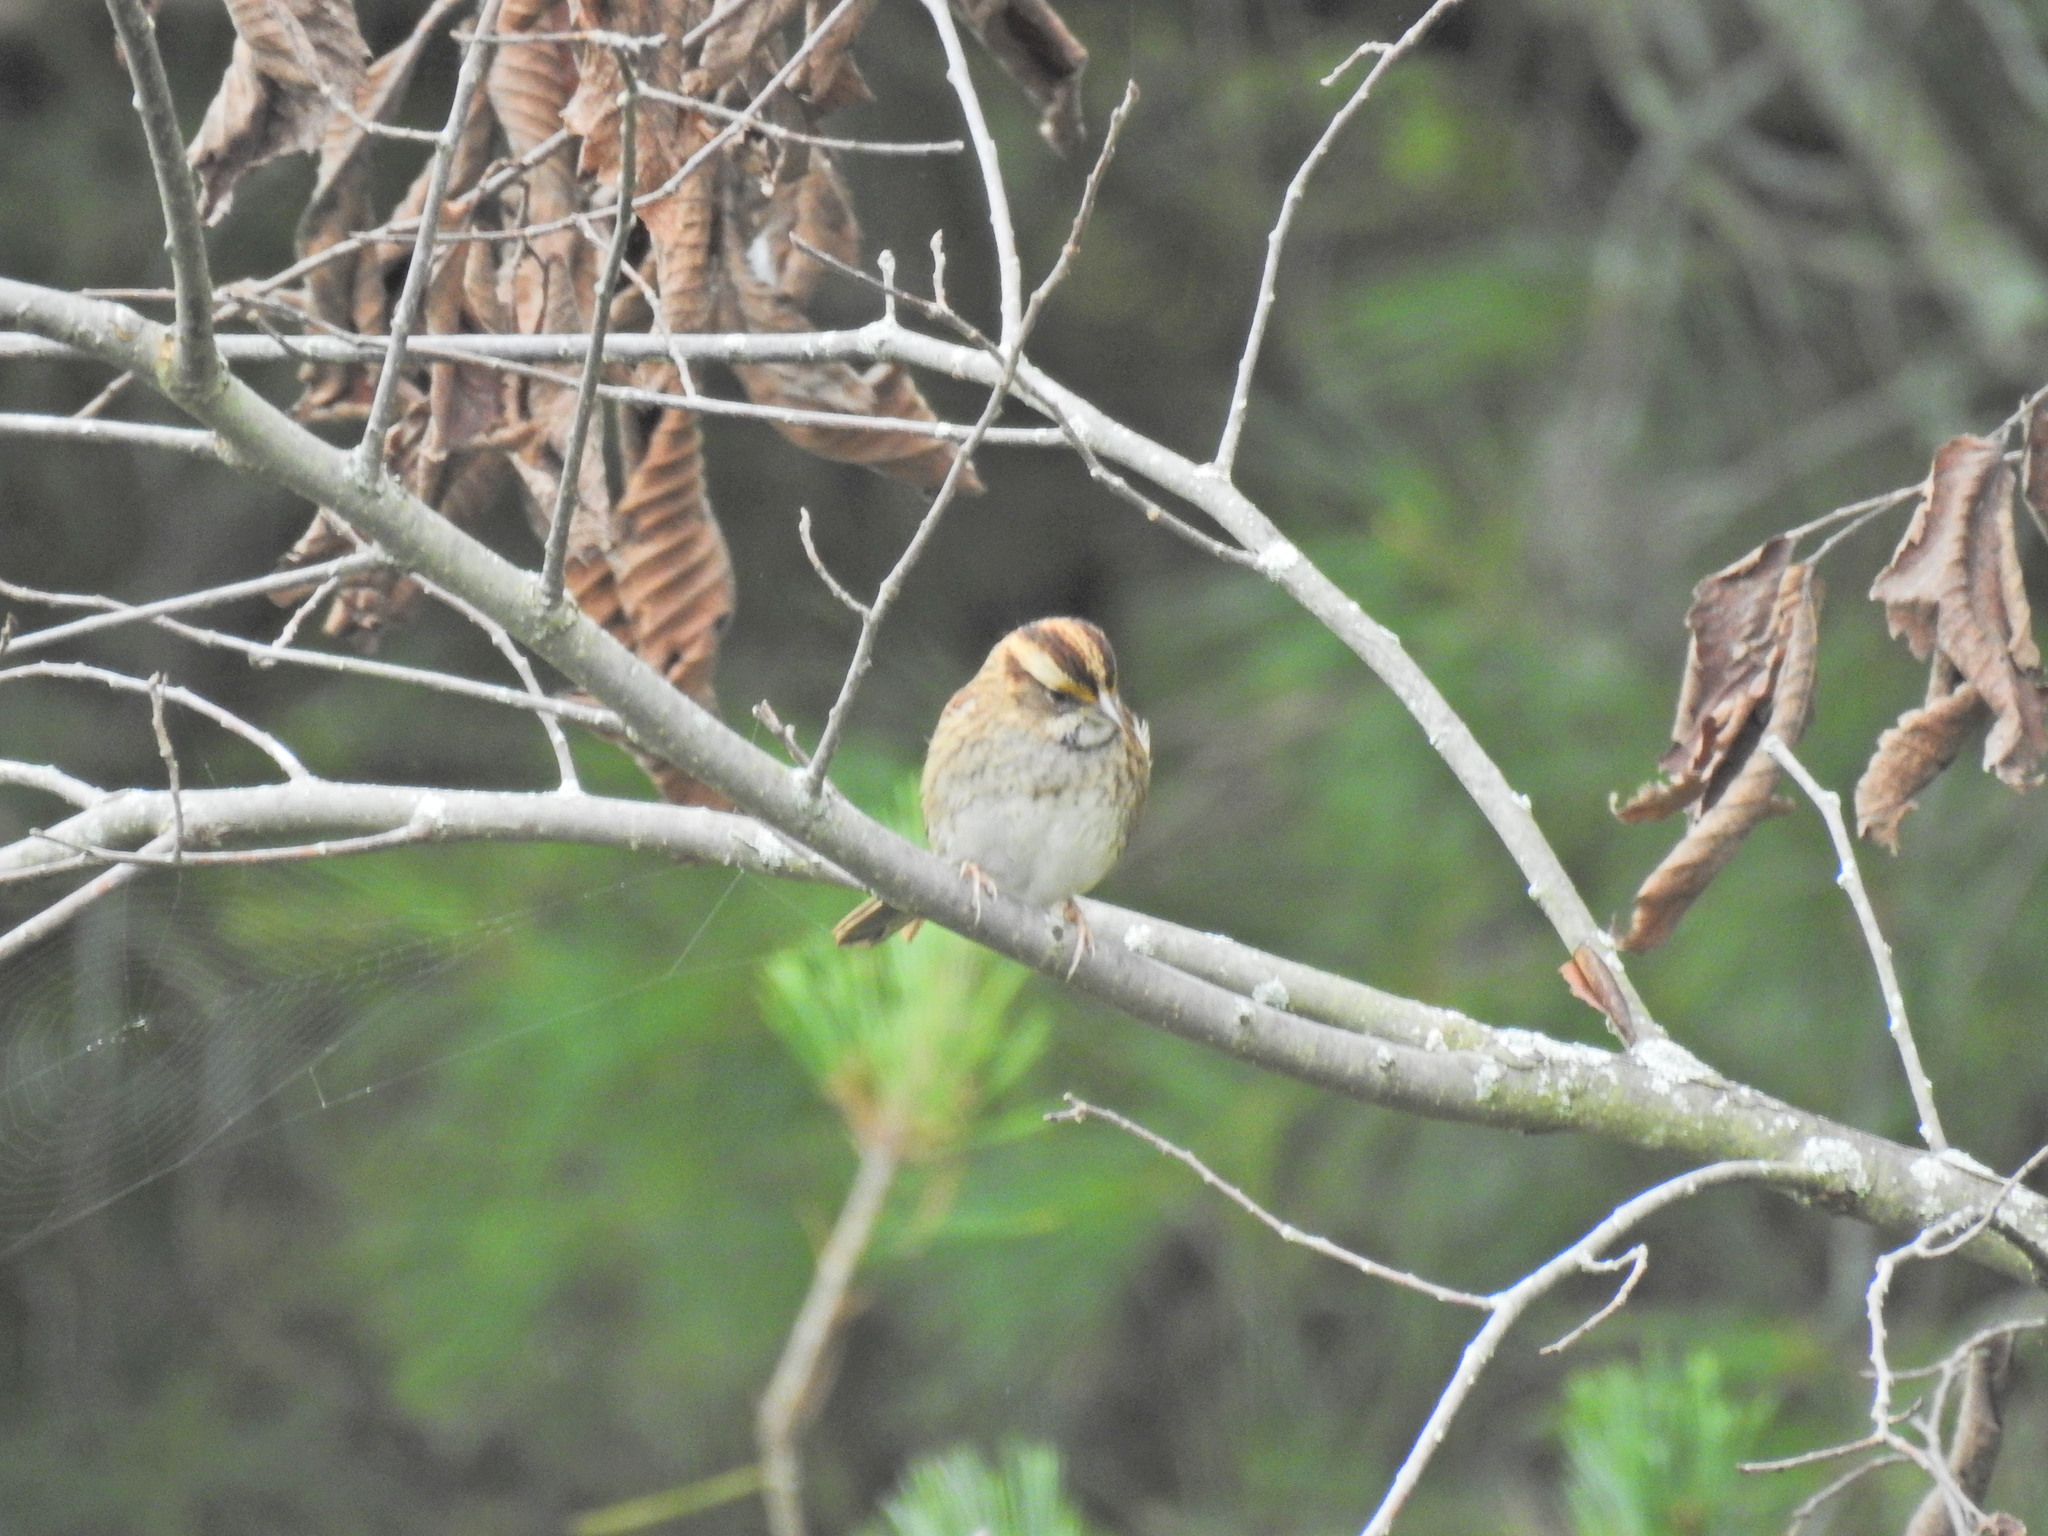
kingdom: Animalia
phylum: Chordata
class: Aves
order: Passeriformes
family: Passerellidae
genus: Zonotrichia
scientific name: Zonotrichia albicollis
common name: White-throated sparrow
